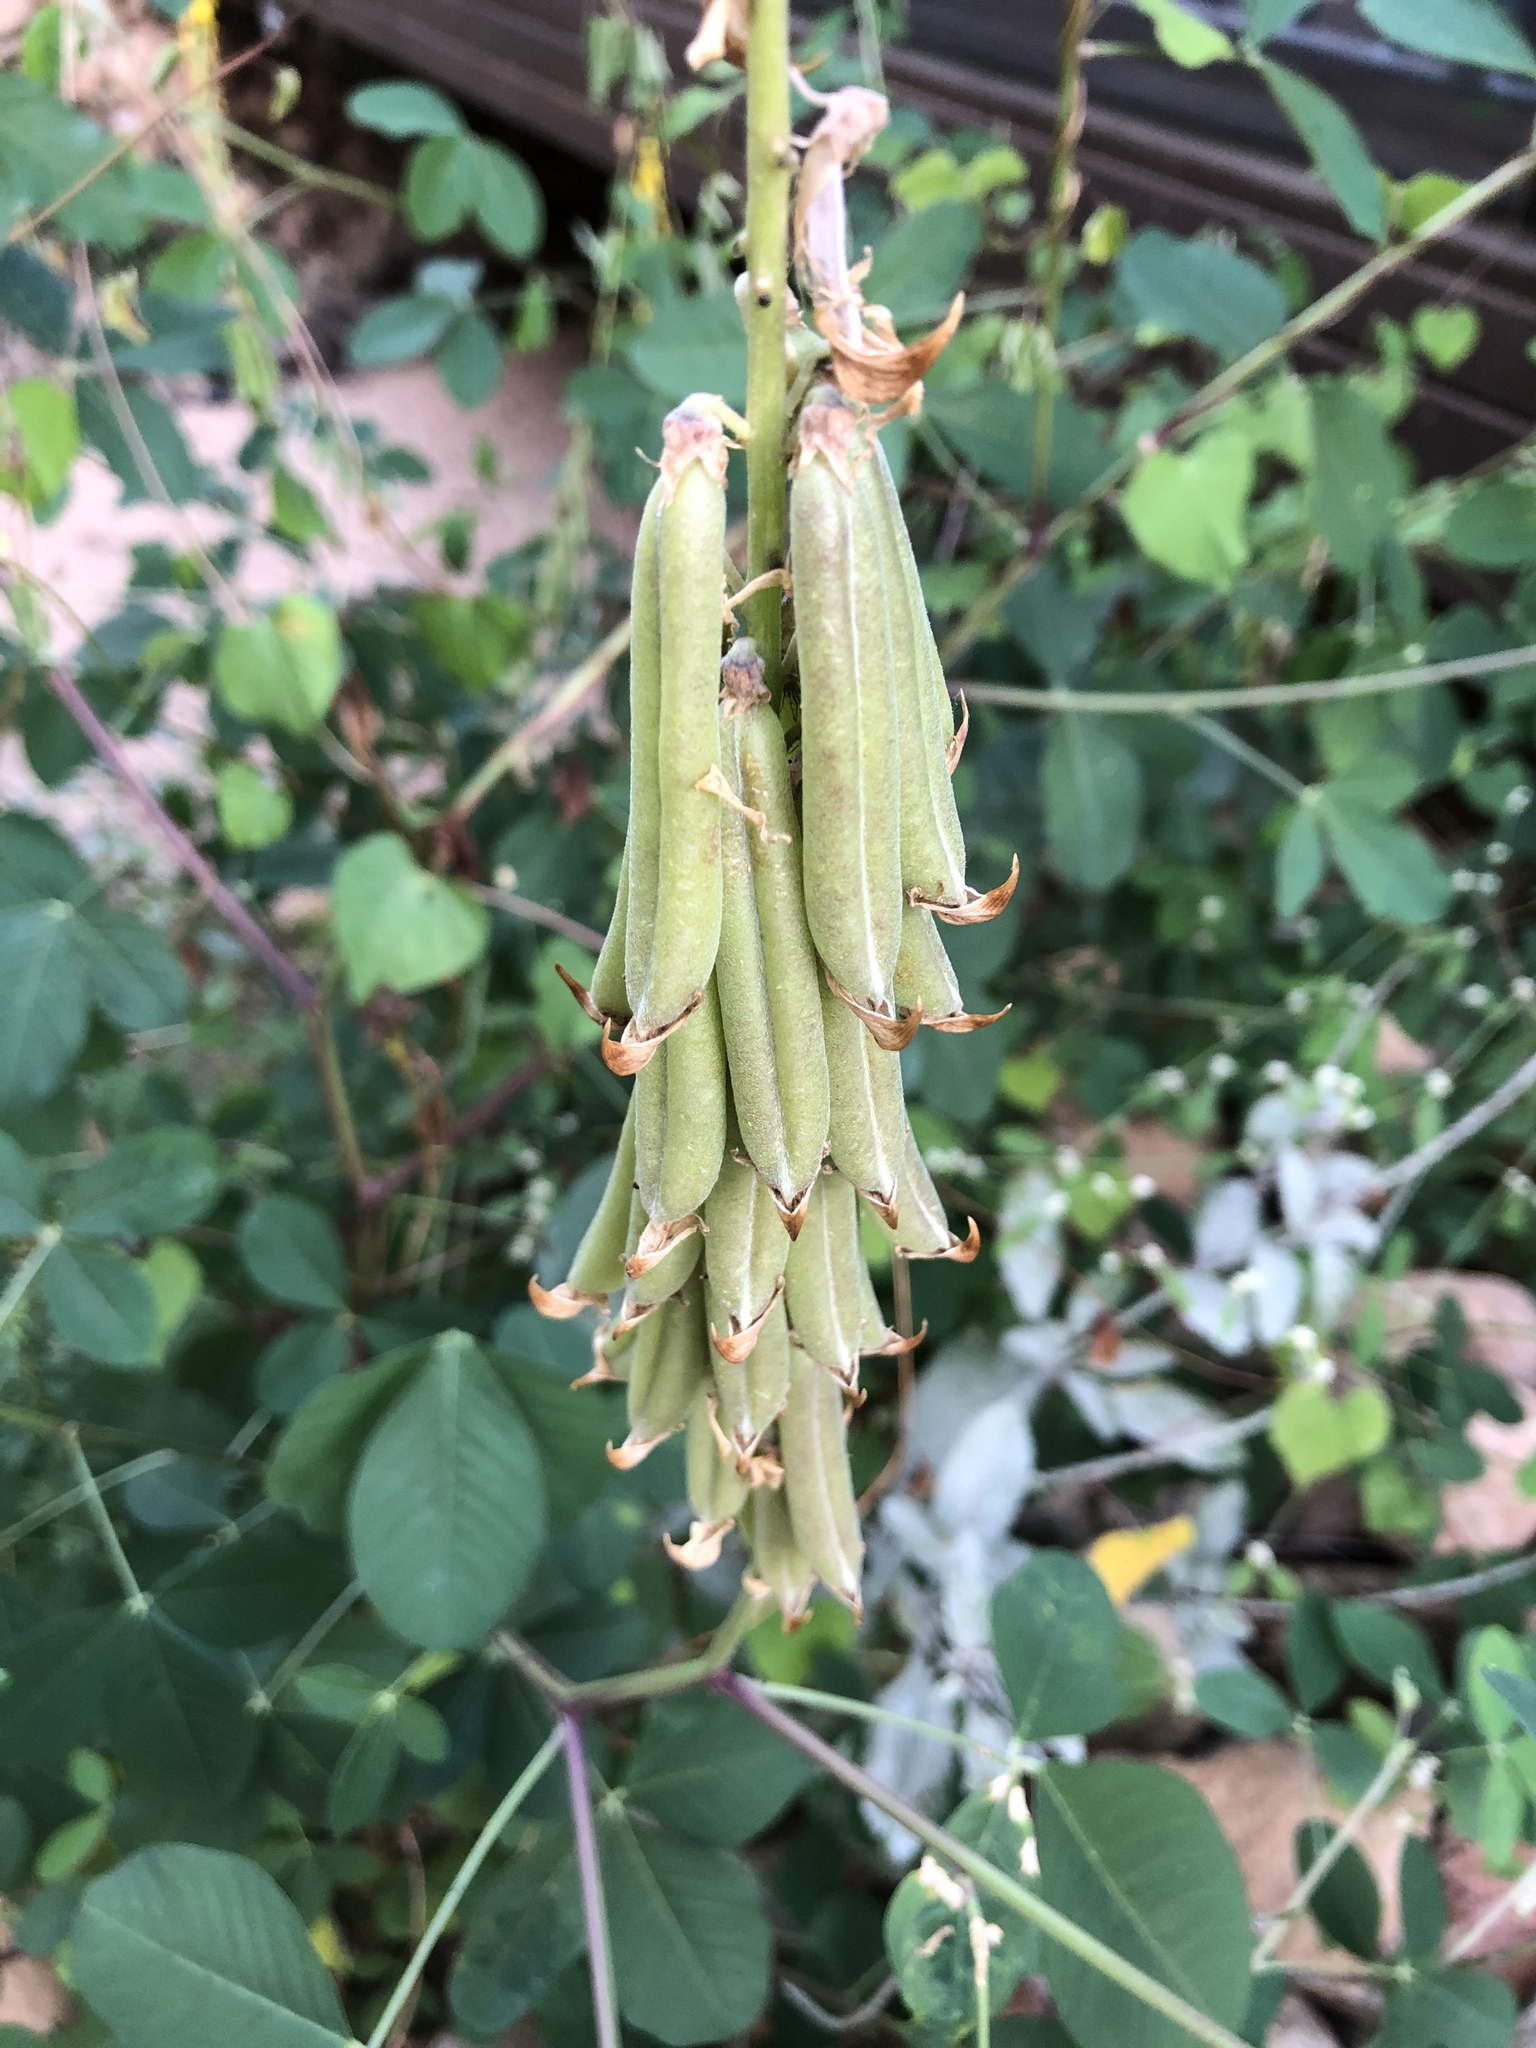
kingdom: Plantae
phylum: Tracheophyta
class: Magnoliopsida
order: Fabales
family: Fabaceae
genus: Crotalaria
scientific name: Crotalaria pallida
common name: Smooth rattlebox
